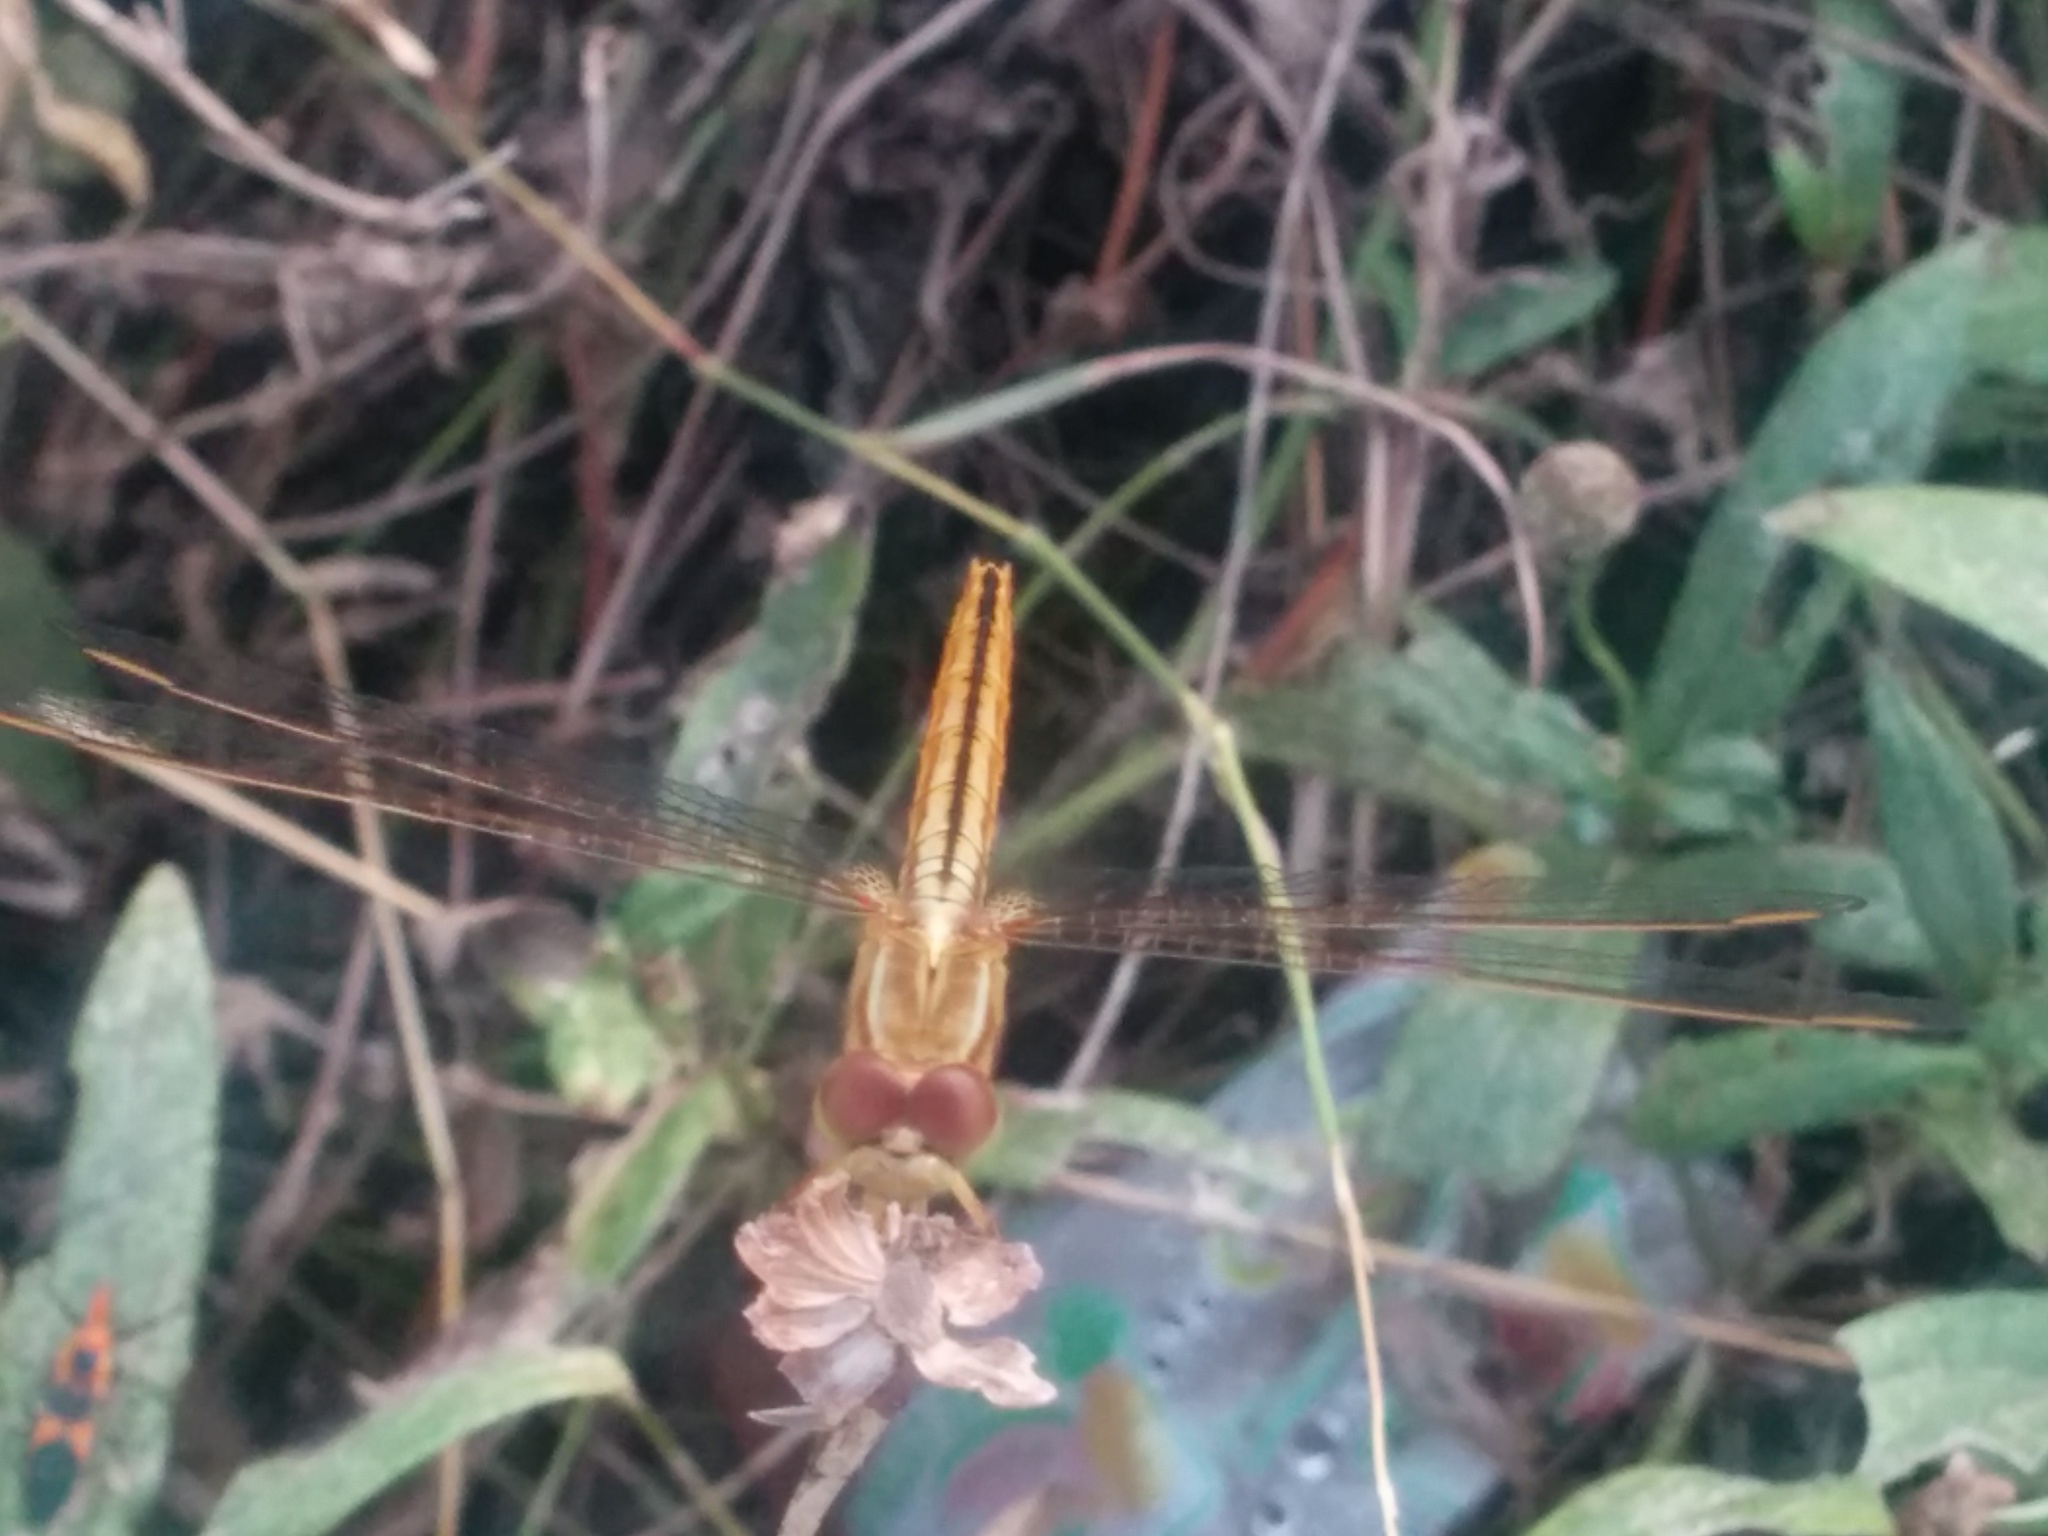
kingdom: Animalia
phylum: Arthropoda
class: Insecta
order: Odonata
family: Libellulidae
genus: Crocothemis
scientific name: Crocothemis servilia
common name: Scarlet skimmer
